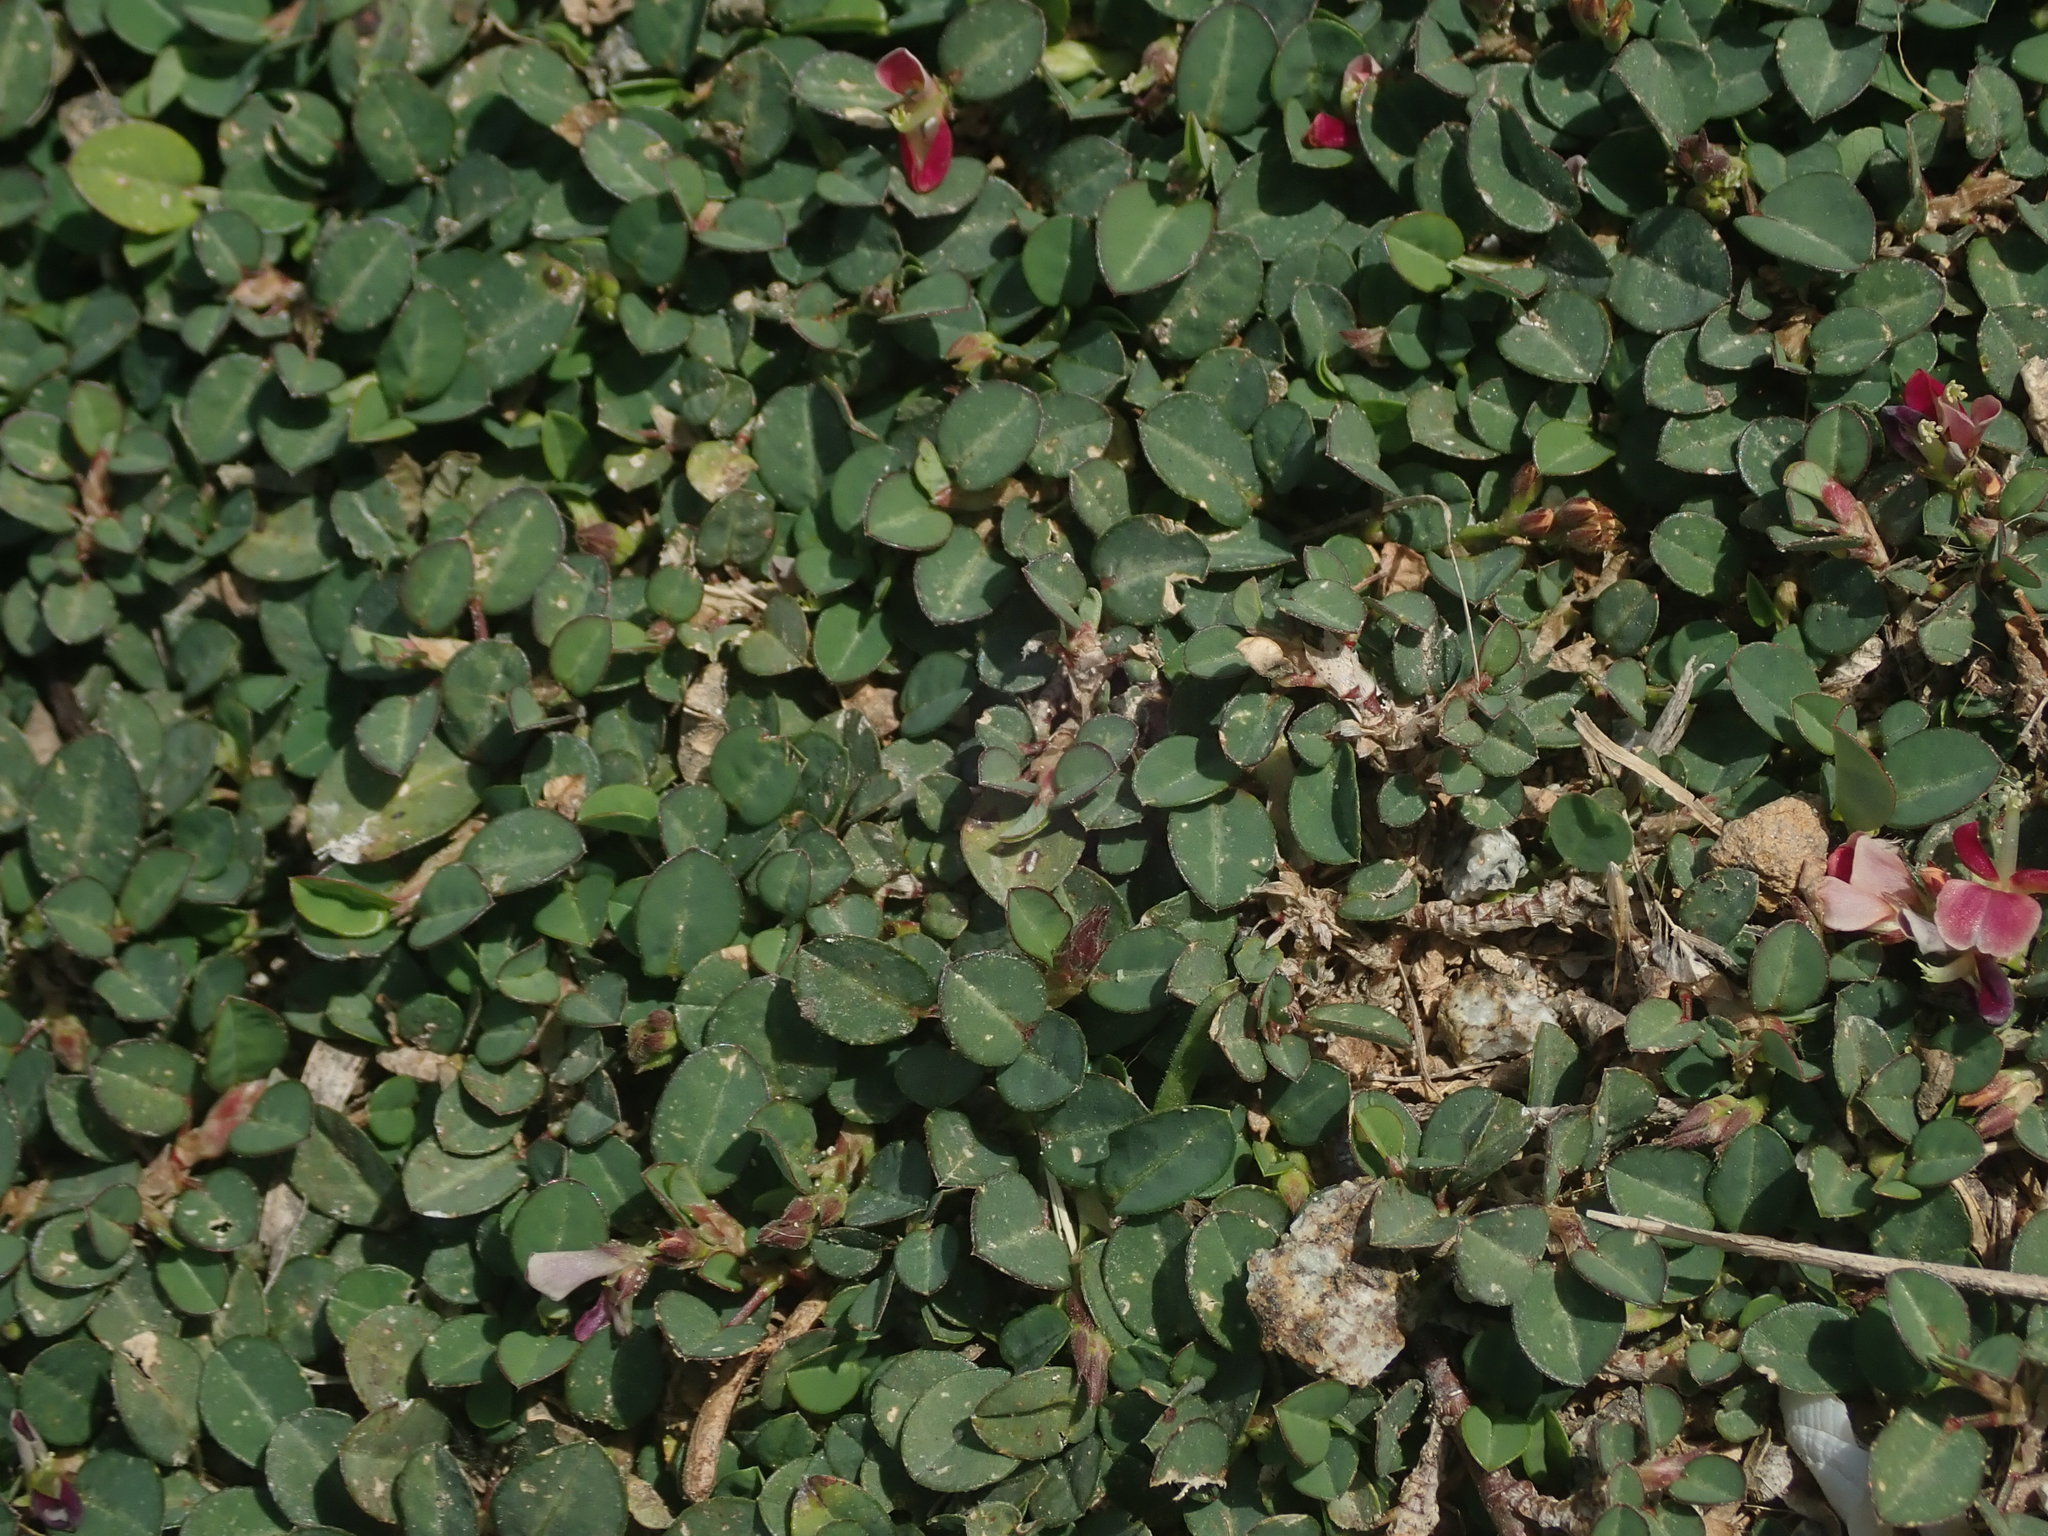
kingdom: Plantae
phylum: Tracheophyta
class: Magnoliopsida
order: Fabales
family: Fabaceae
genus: Alysicarpus
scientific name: Alysicarpus vaginalis
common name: White moneywort
